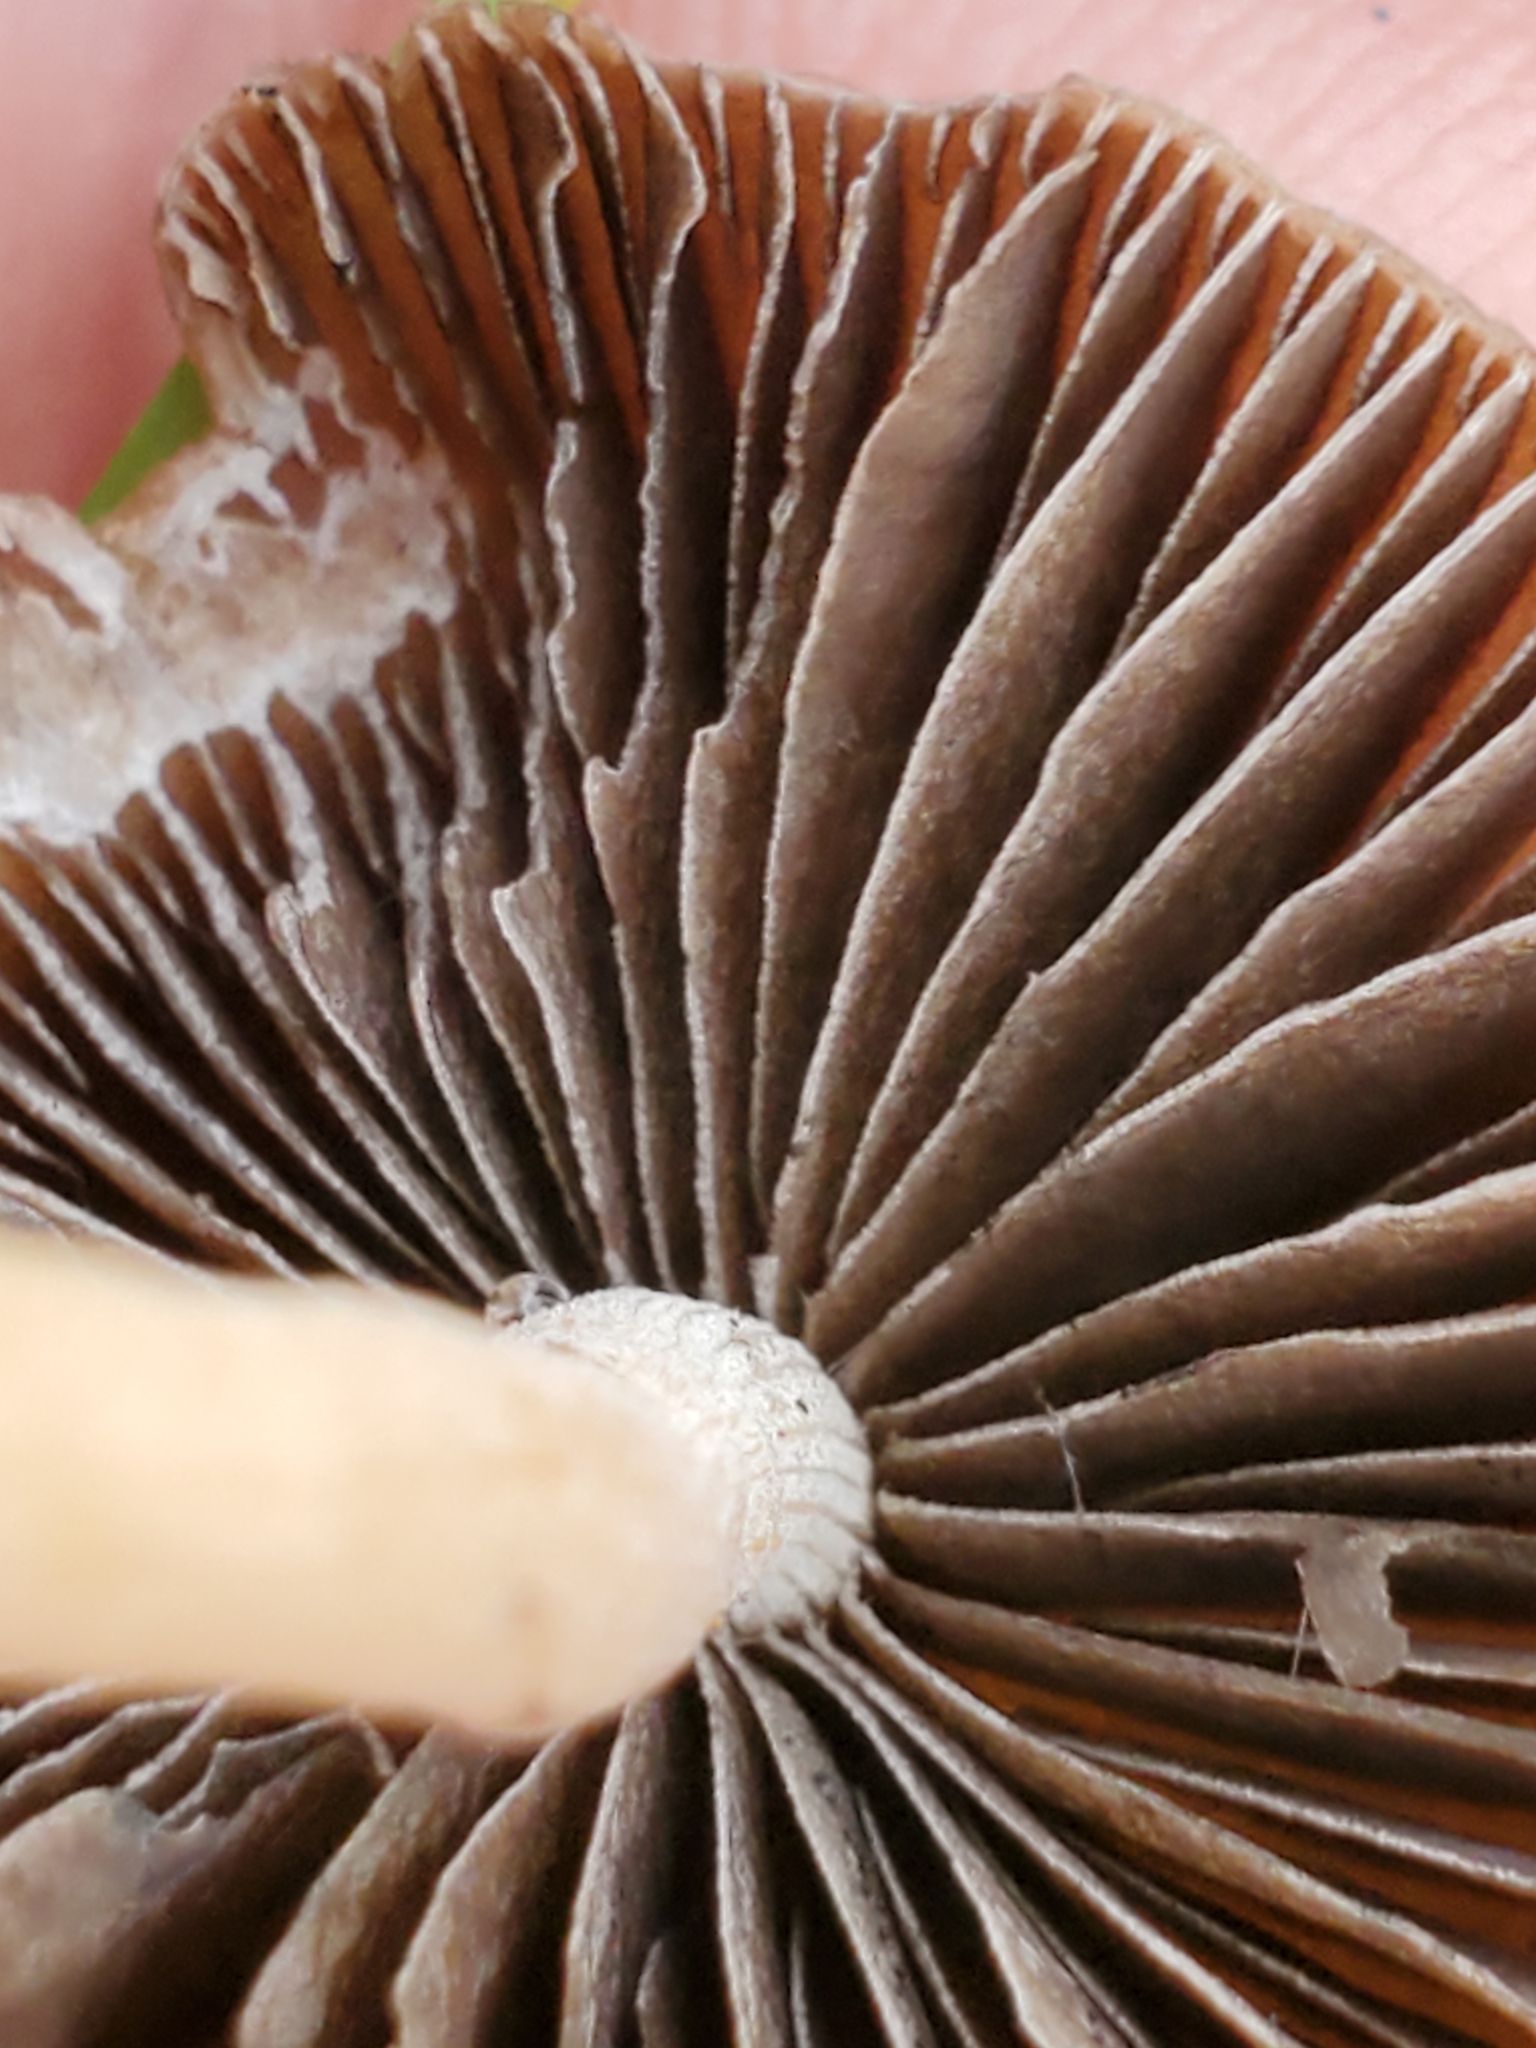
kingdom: Fungi
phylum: Basidiomycota
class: Agaricomycetes
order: Agaricales
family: Bolbitiaceae
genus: Panaeolina
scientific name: Panaeolina foenisecii
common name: Brown hay cap
